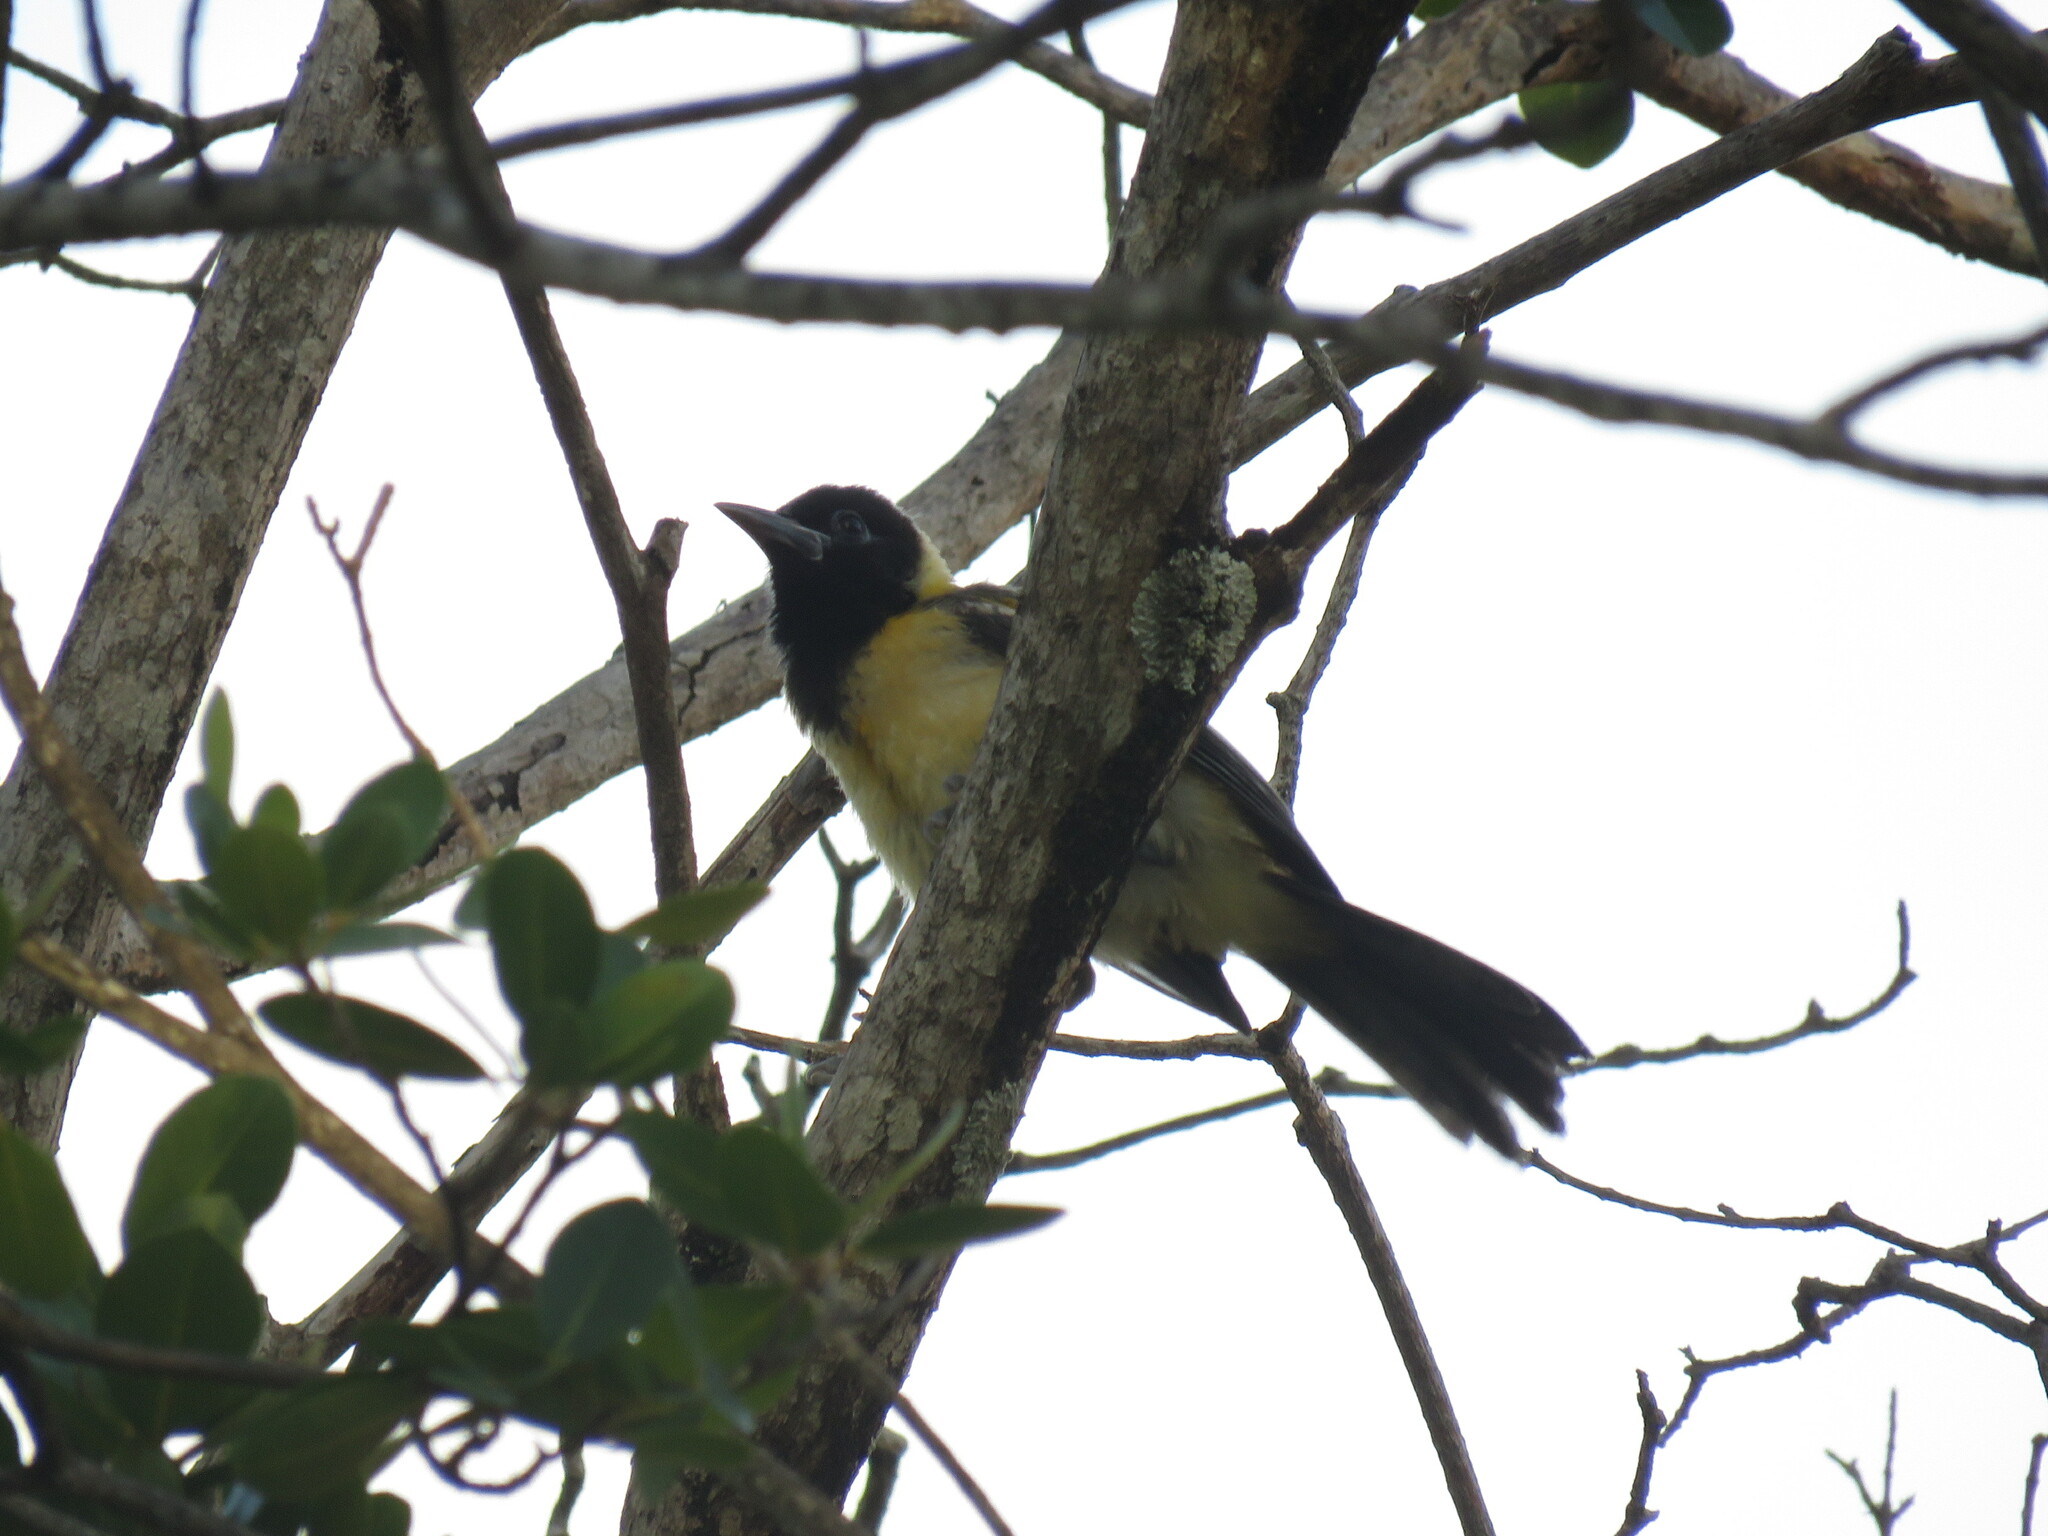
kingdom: Animalia
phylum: Chordata
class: Aves
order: Passeriformes
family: Icteridae
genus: Icterus
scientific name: Icterus icterus
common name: Venezuelan troupial
